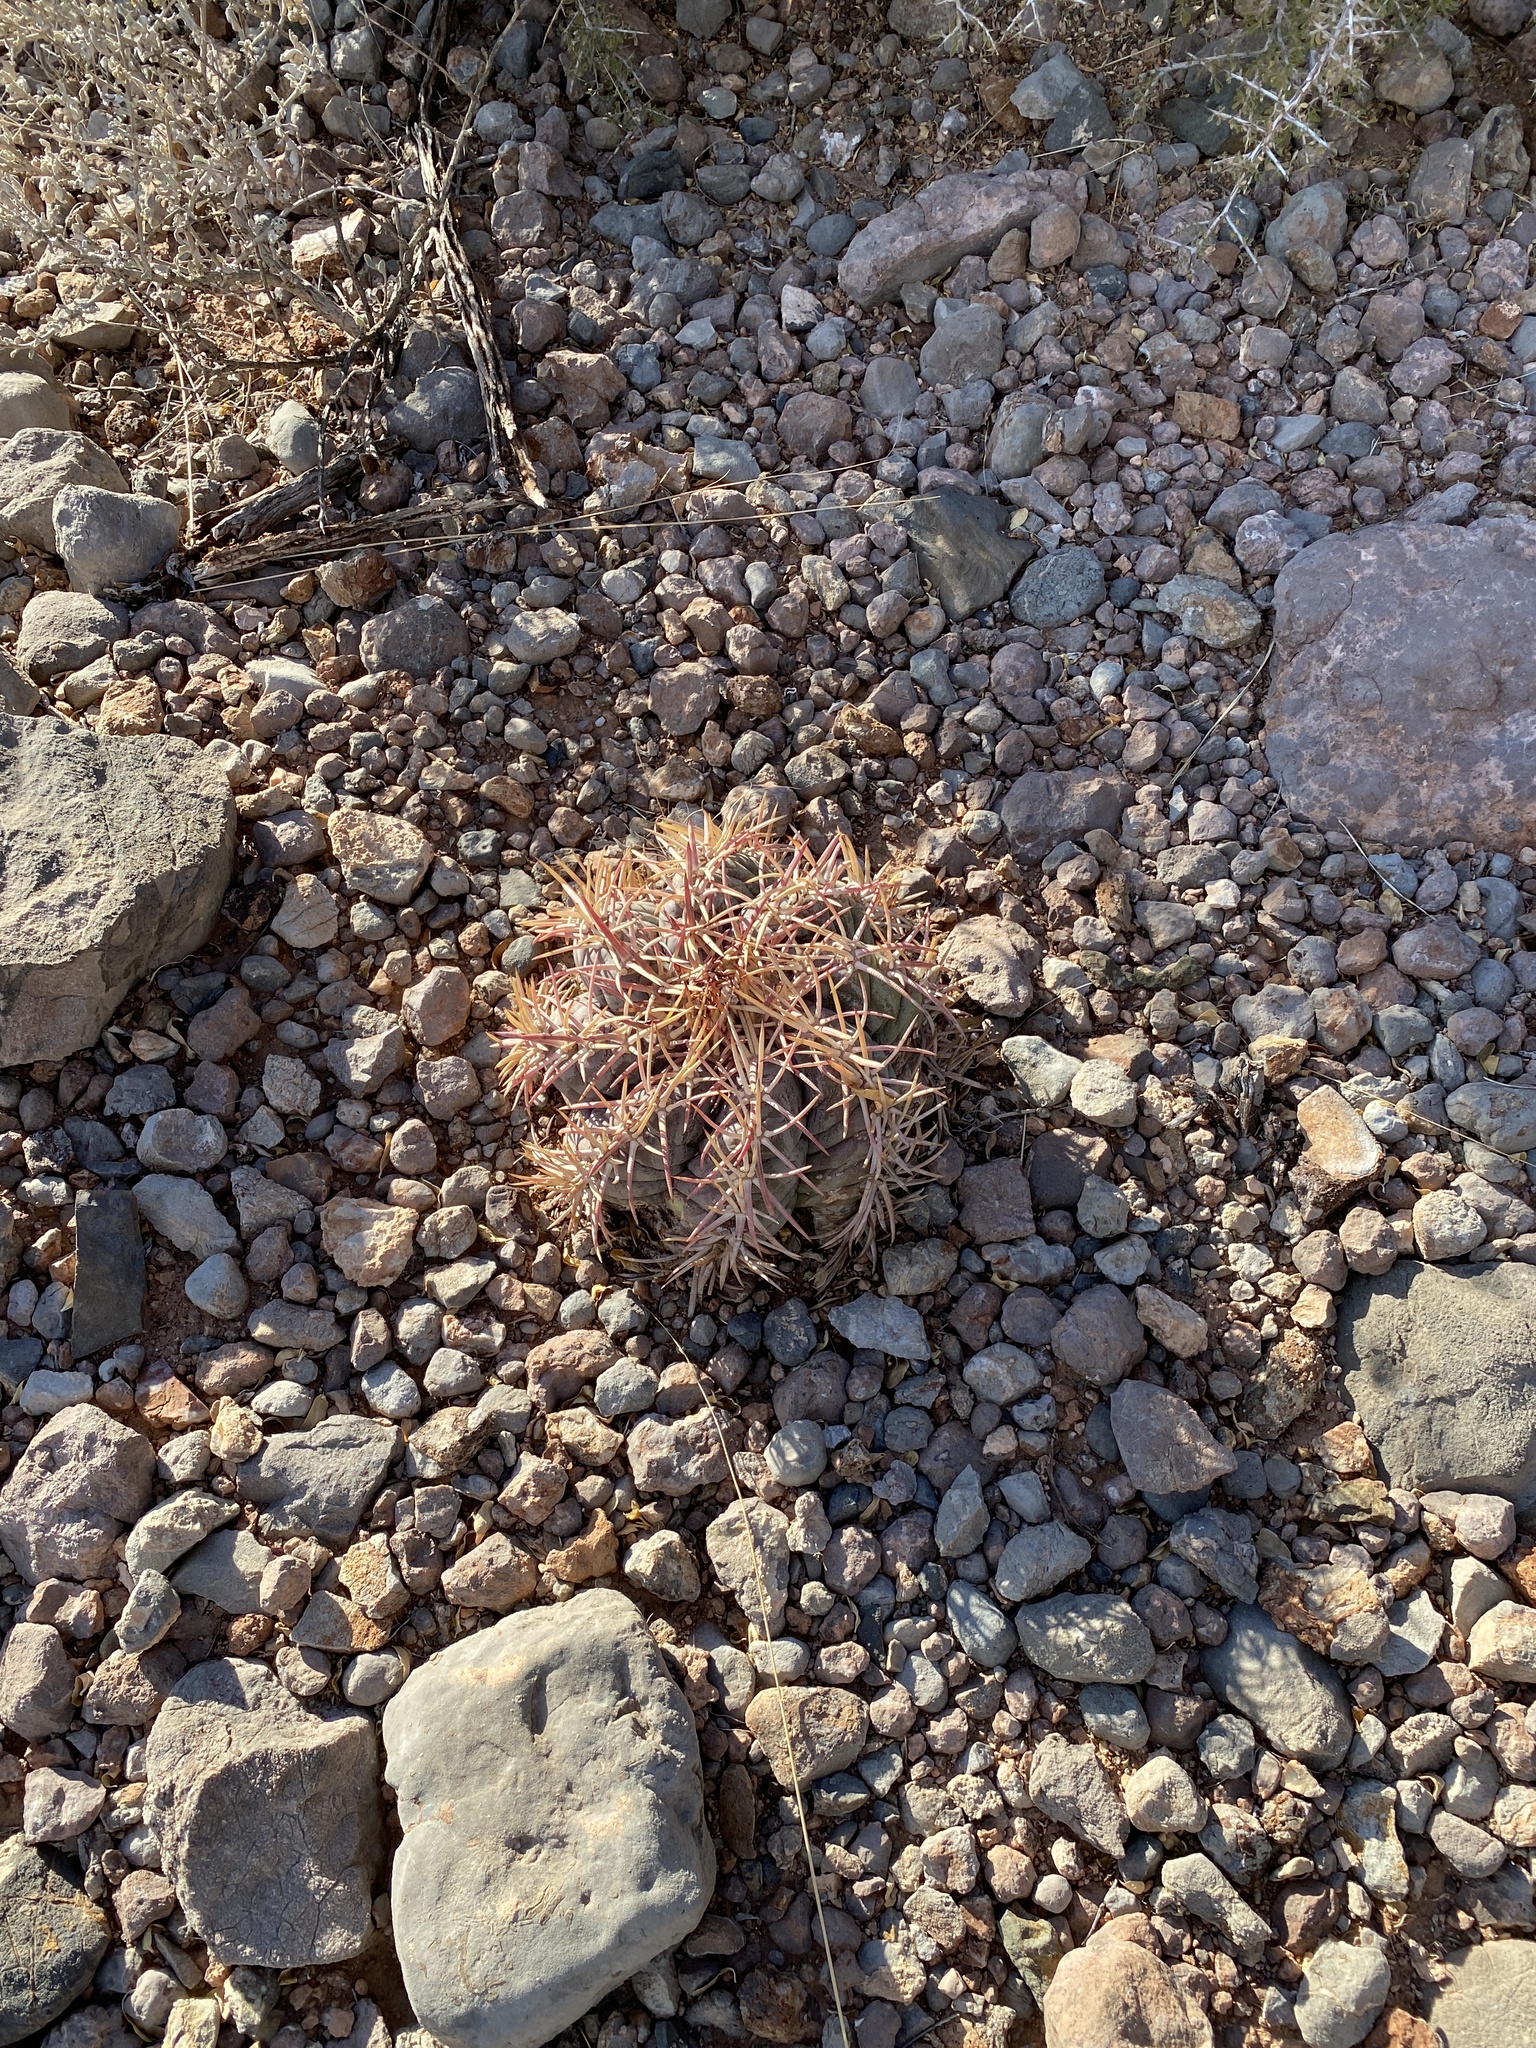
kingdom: Plantae
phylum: Tracheophyta
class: Magnoliopsida
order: Caryophyllales
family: Cactaceae
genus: Echinocactus
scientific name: Echinocactus horizonthalonius
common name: Devilshead
